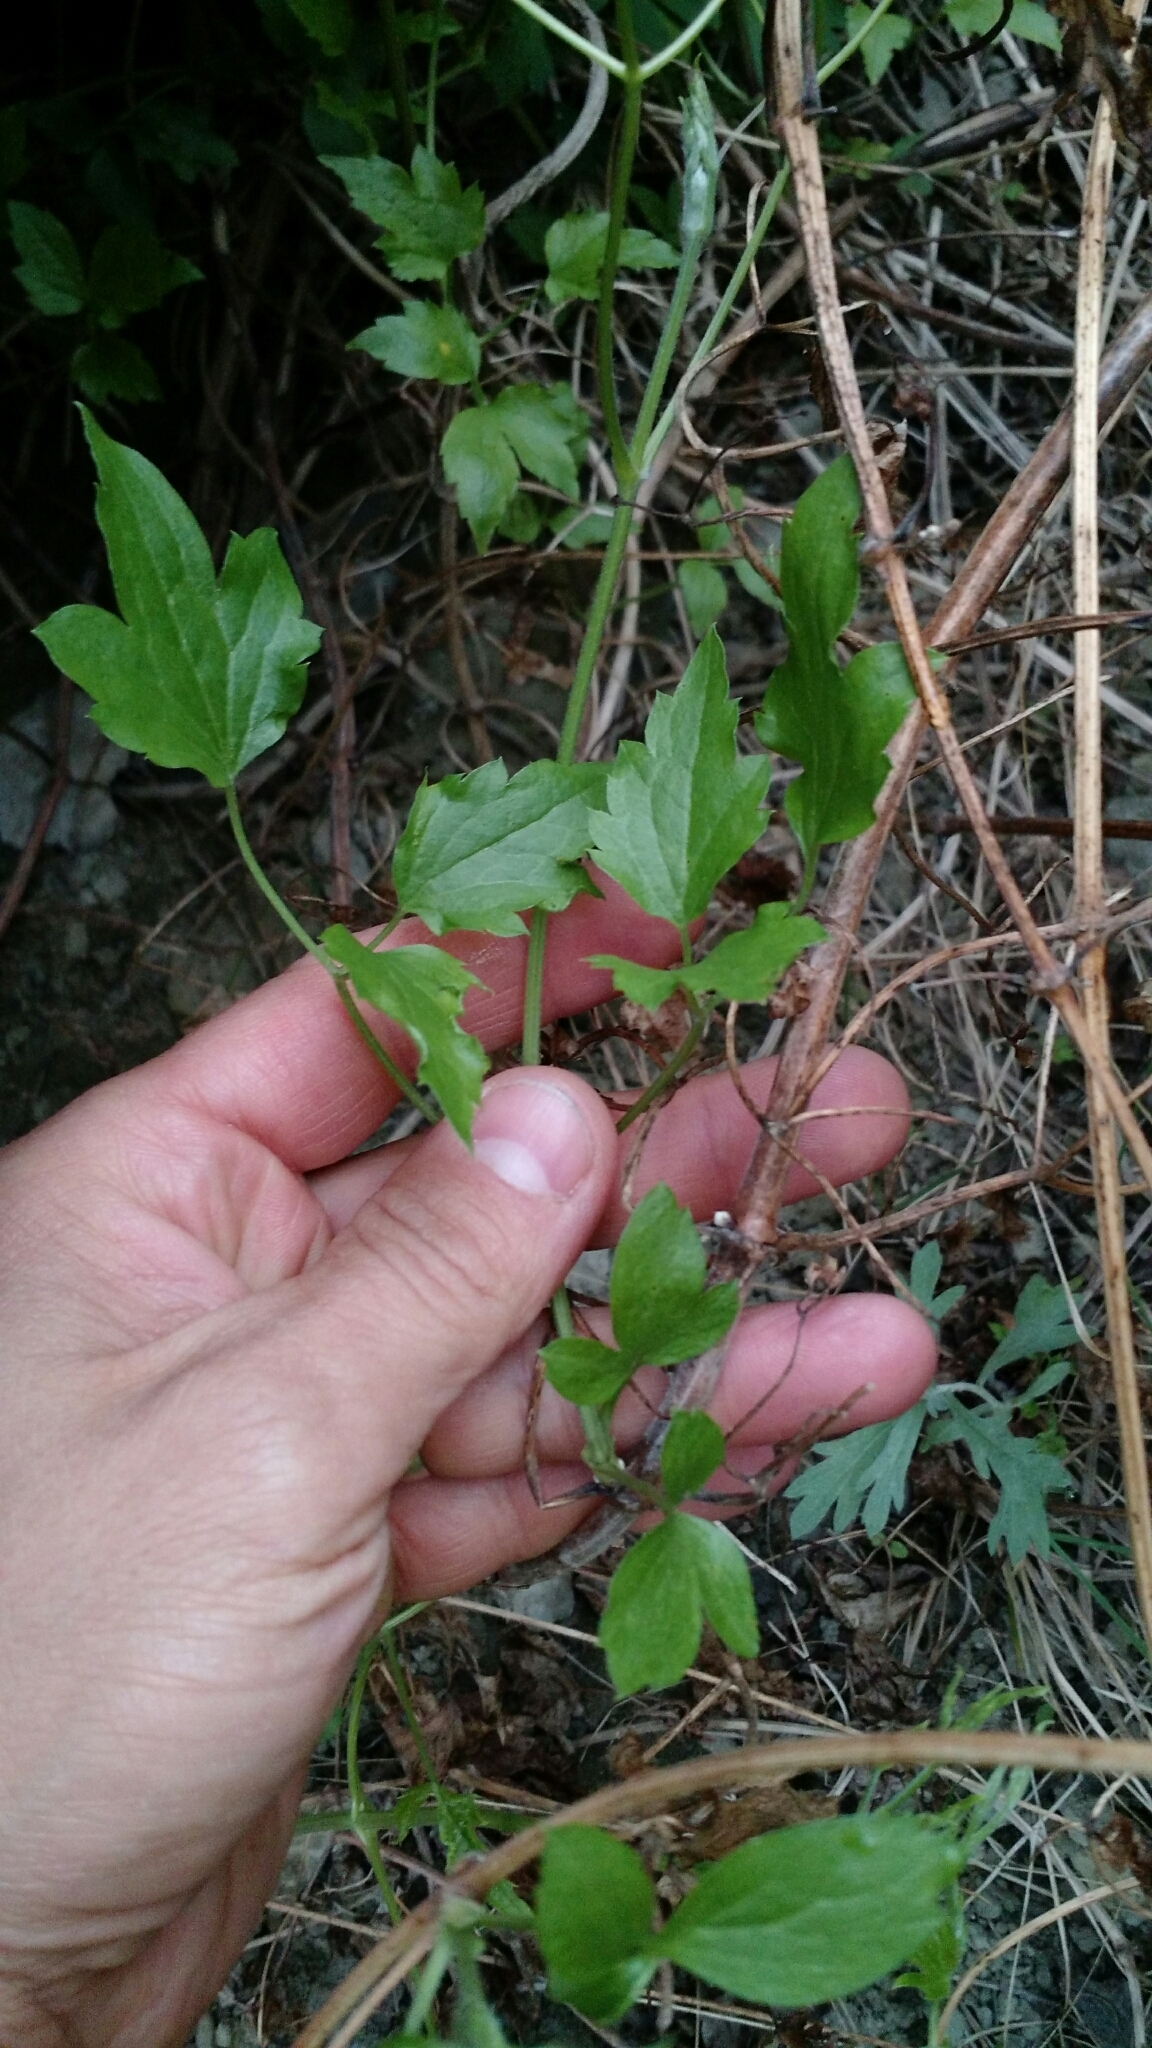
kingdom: Plantae
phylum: Tracheophyta
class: Magnoliopsida
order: Ranunculales
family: Ranunculaceae
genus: Clematis
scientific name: Clematis ligusticifolia
